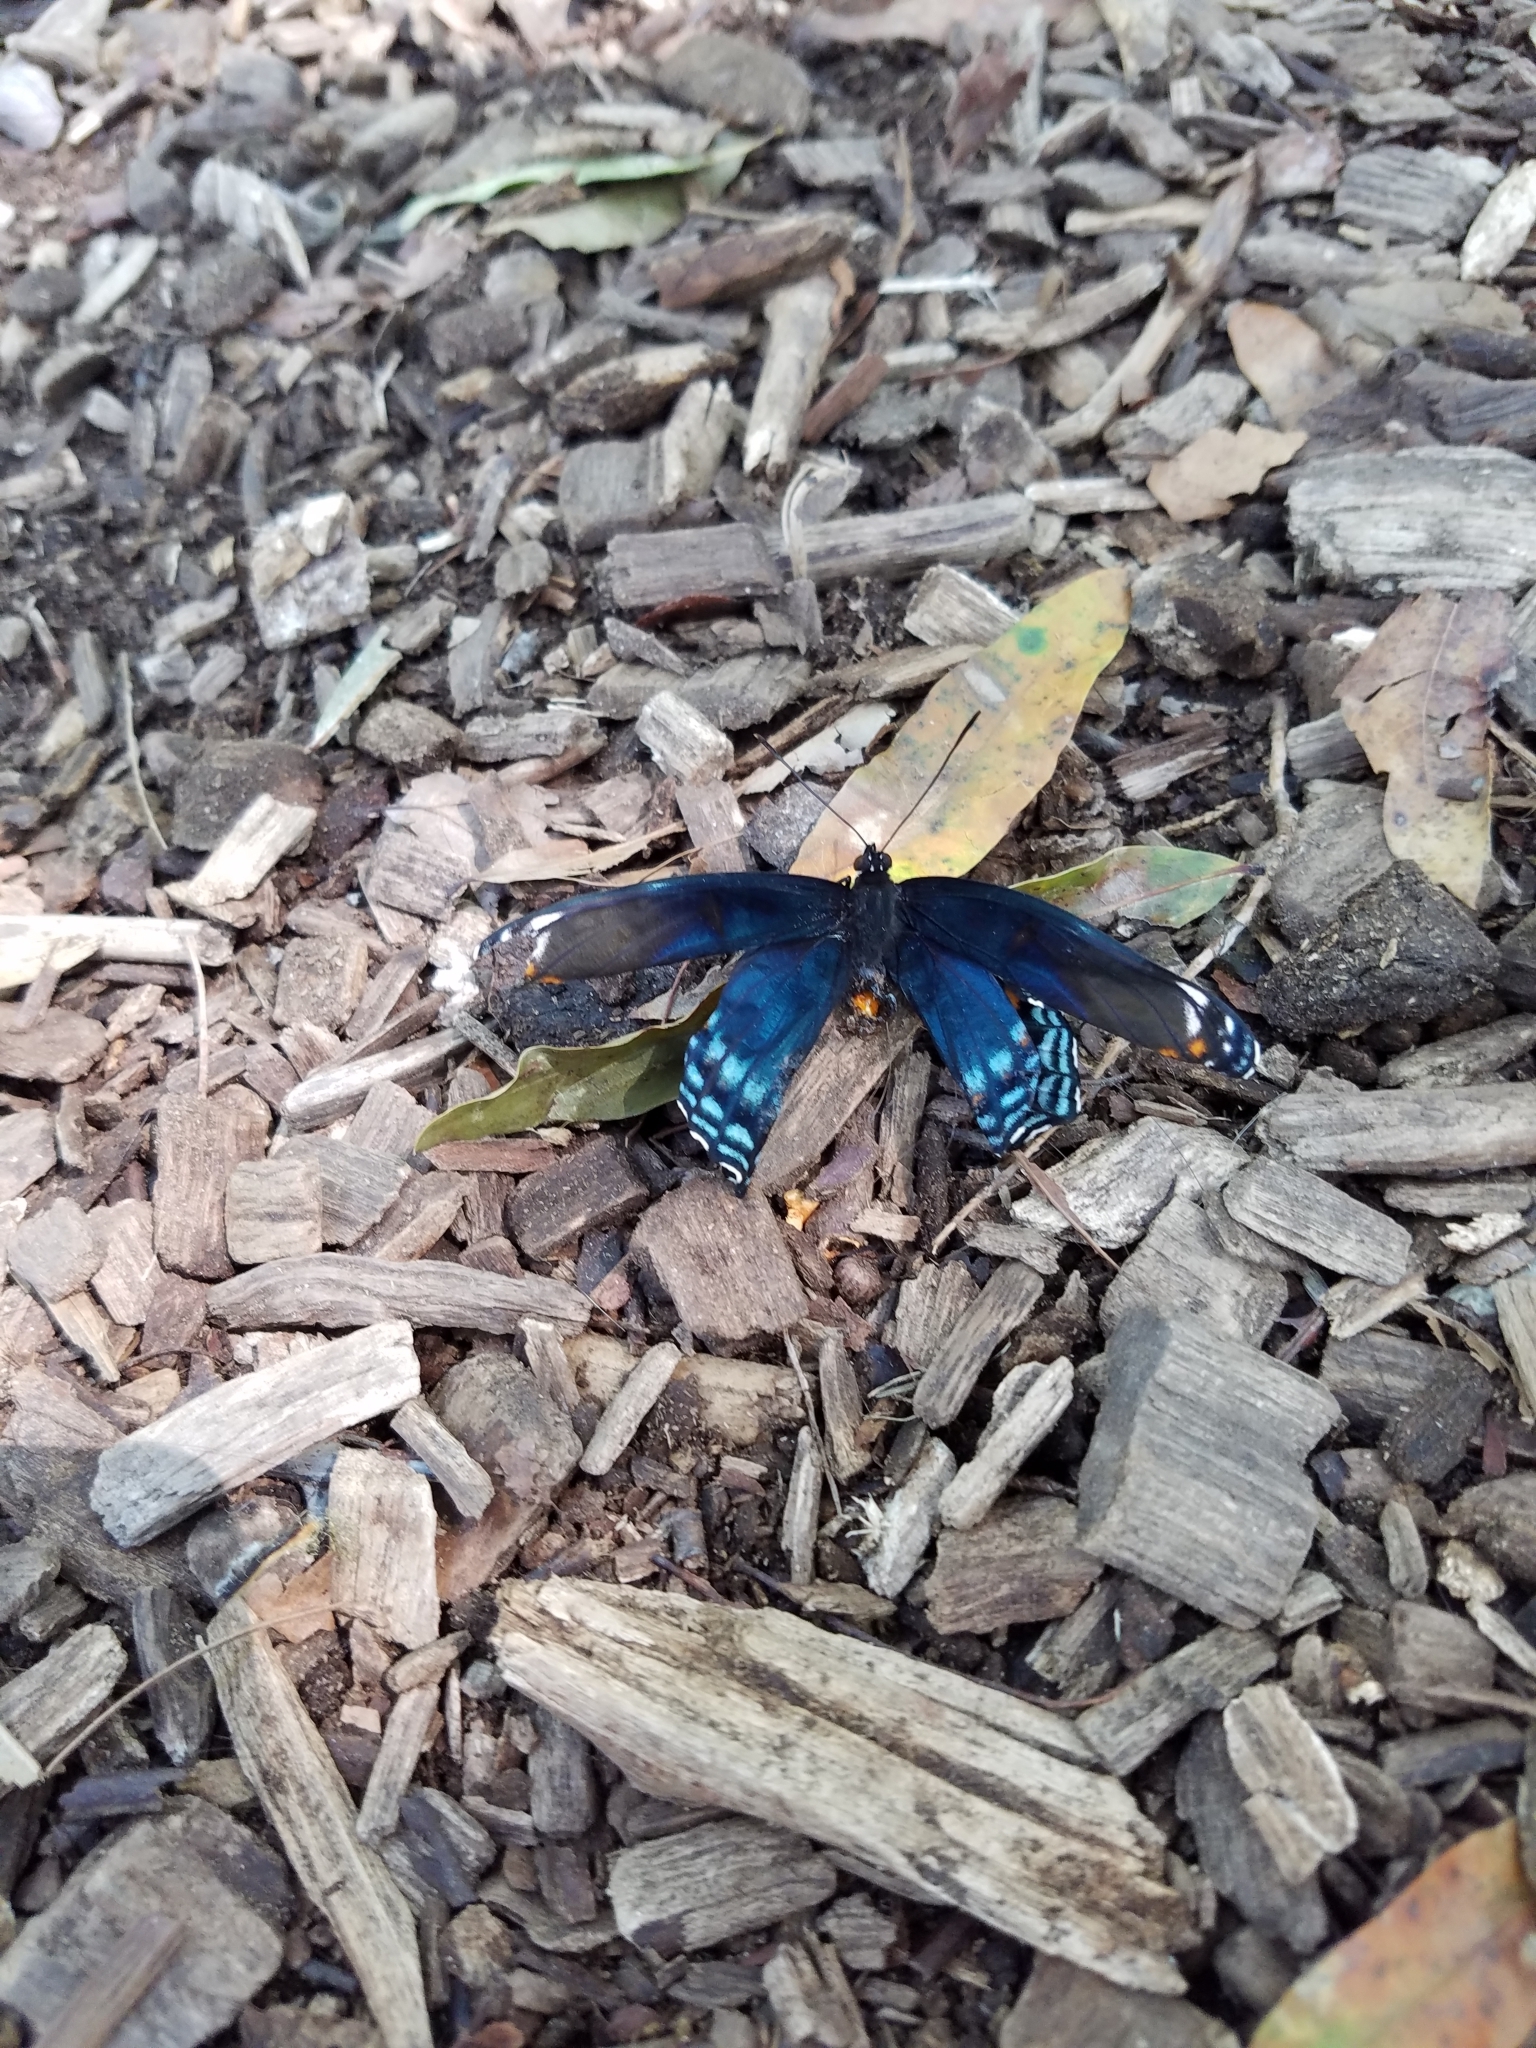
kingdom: Animalia
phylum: Arthropoda
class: Insecta
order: Lepidoptera
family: Nymphalidae
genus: Limenitis
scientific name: Limenitis astyanax
